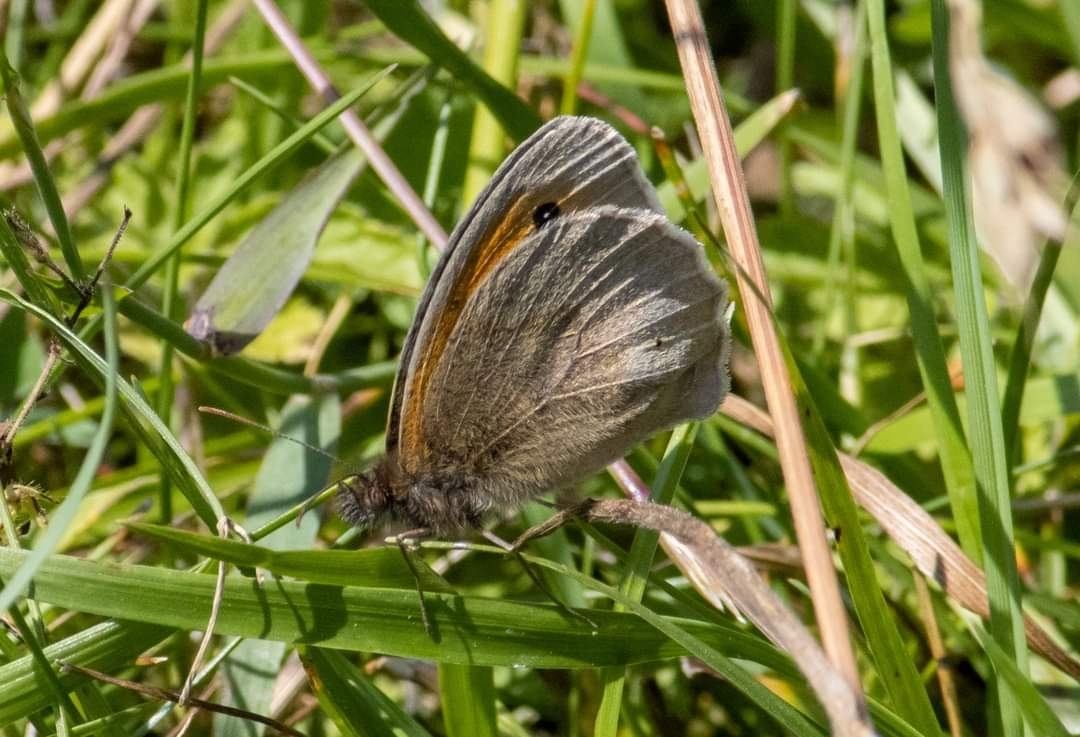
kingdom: Animalia
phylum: Arthropoda
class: Insecta
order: Lepidoptera
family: Nymphalidae
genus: Maniola
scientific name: Maniola jurtina
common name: Meadow brown
